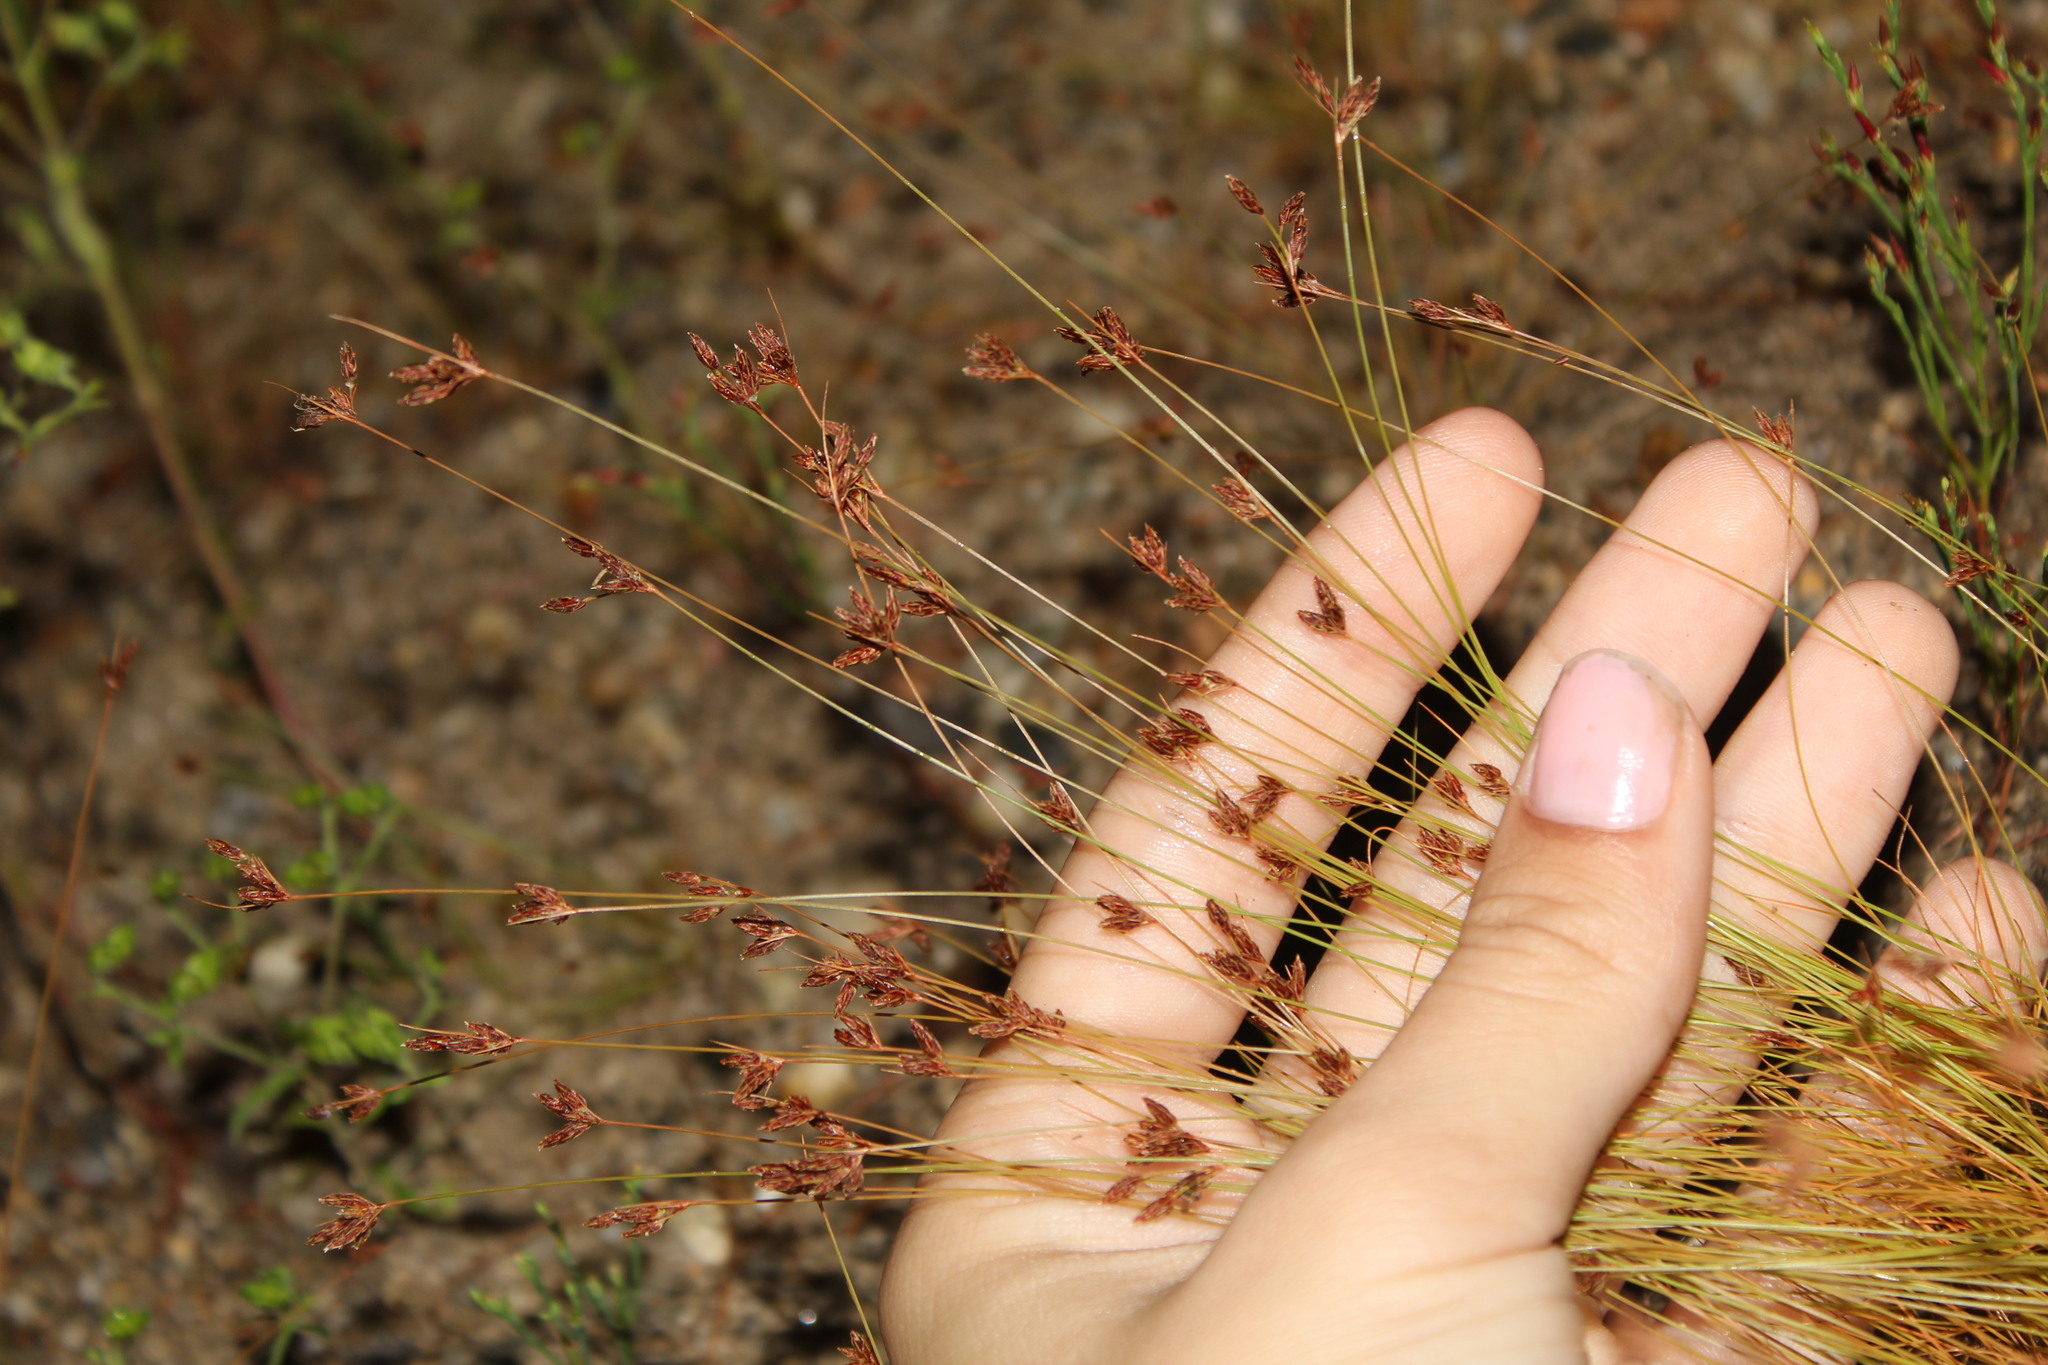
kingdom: Plantae
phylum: Tracheophyta
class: Liliopsida
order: Poales
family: Cyperaceae
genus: Bulbostylis
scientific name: Bulbostylis capillaris
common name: Densetuft hairsedge
